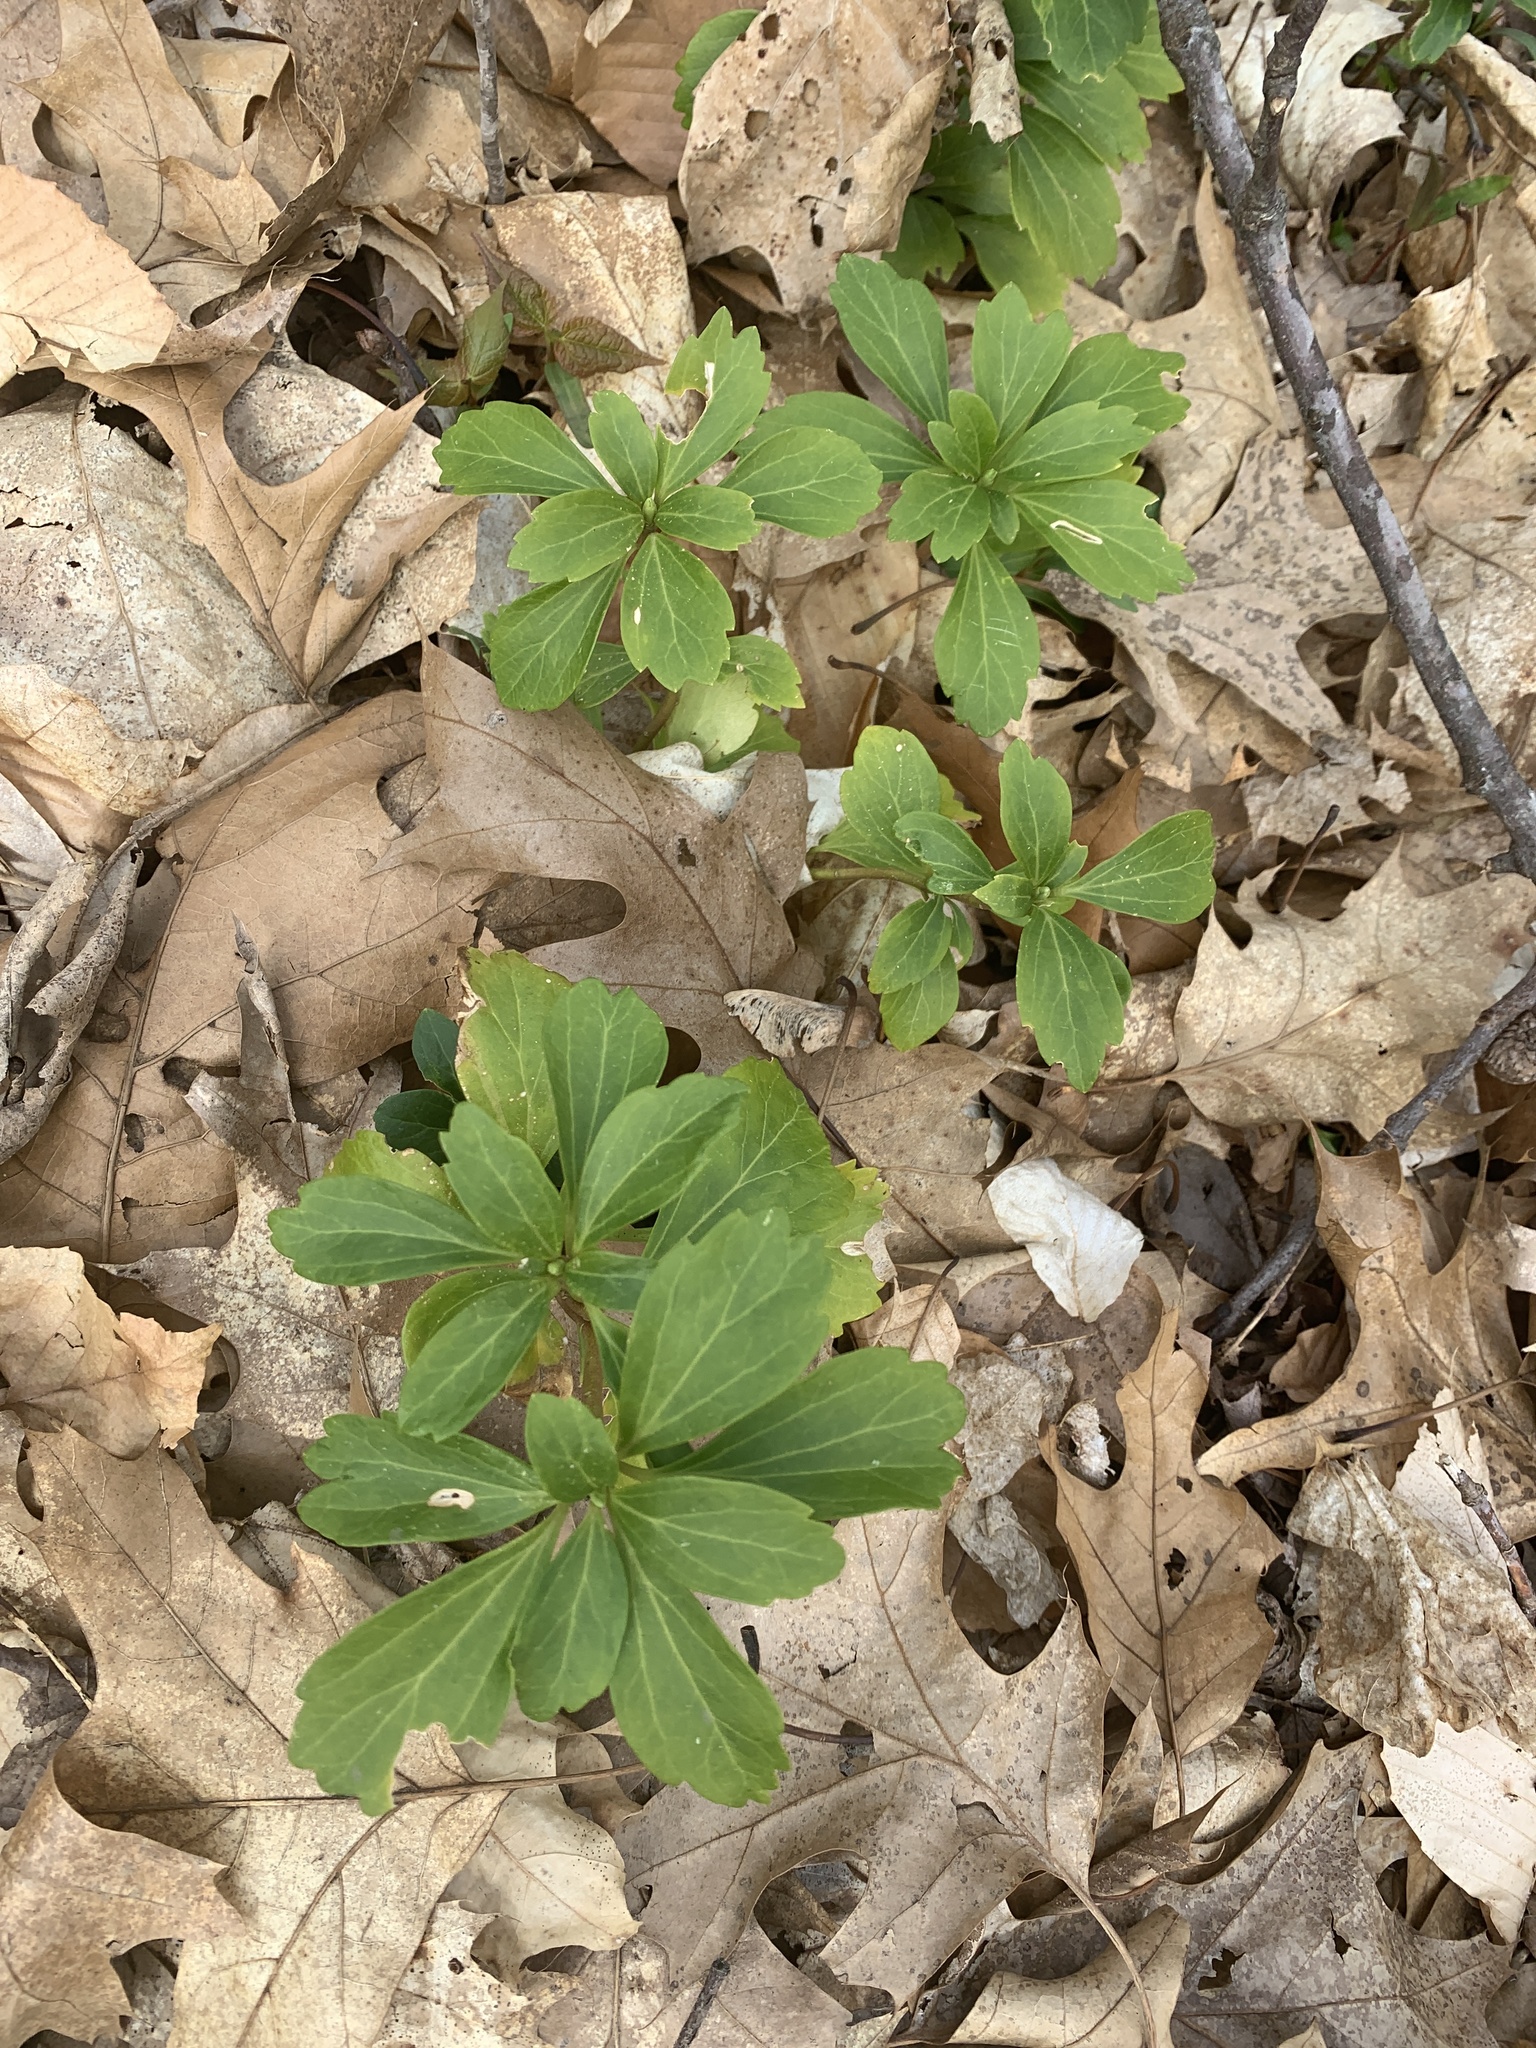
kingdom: Plantae
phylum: Tracheophyta
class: Magnoliopsida
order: Buxales
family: Buxaceae
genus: Pachysandra
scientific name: Pachysandra terminalis
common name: Japanese pachysandra
